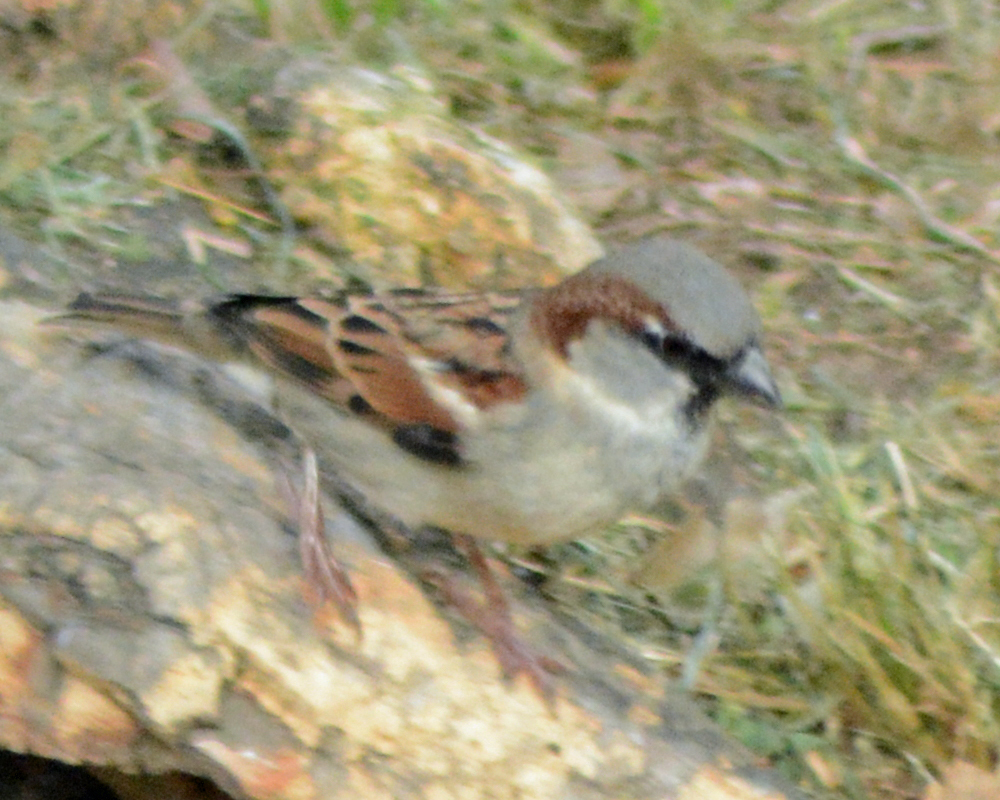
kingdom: Animalia
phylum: Chordata
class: Aves
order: Passeriformes
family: Passeridae
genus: Passer
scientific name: Passer domesticus
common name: House sparrow
